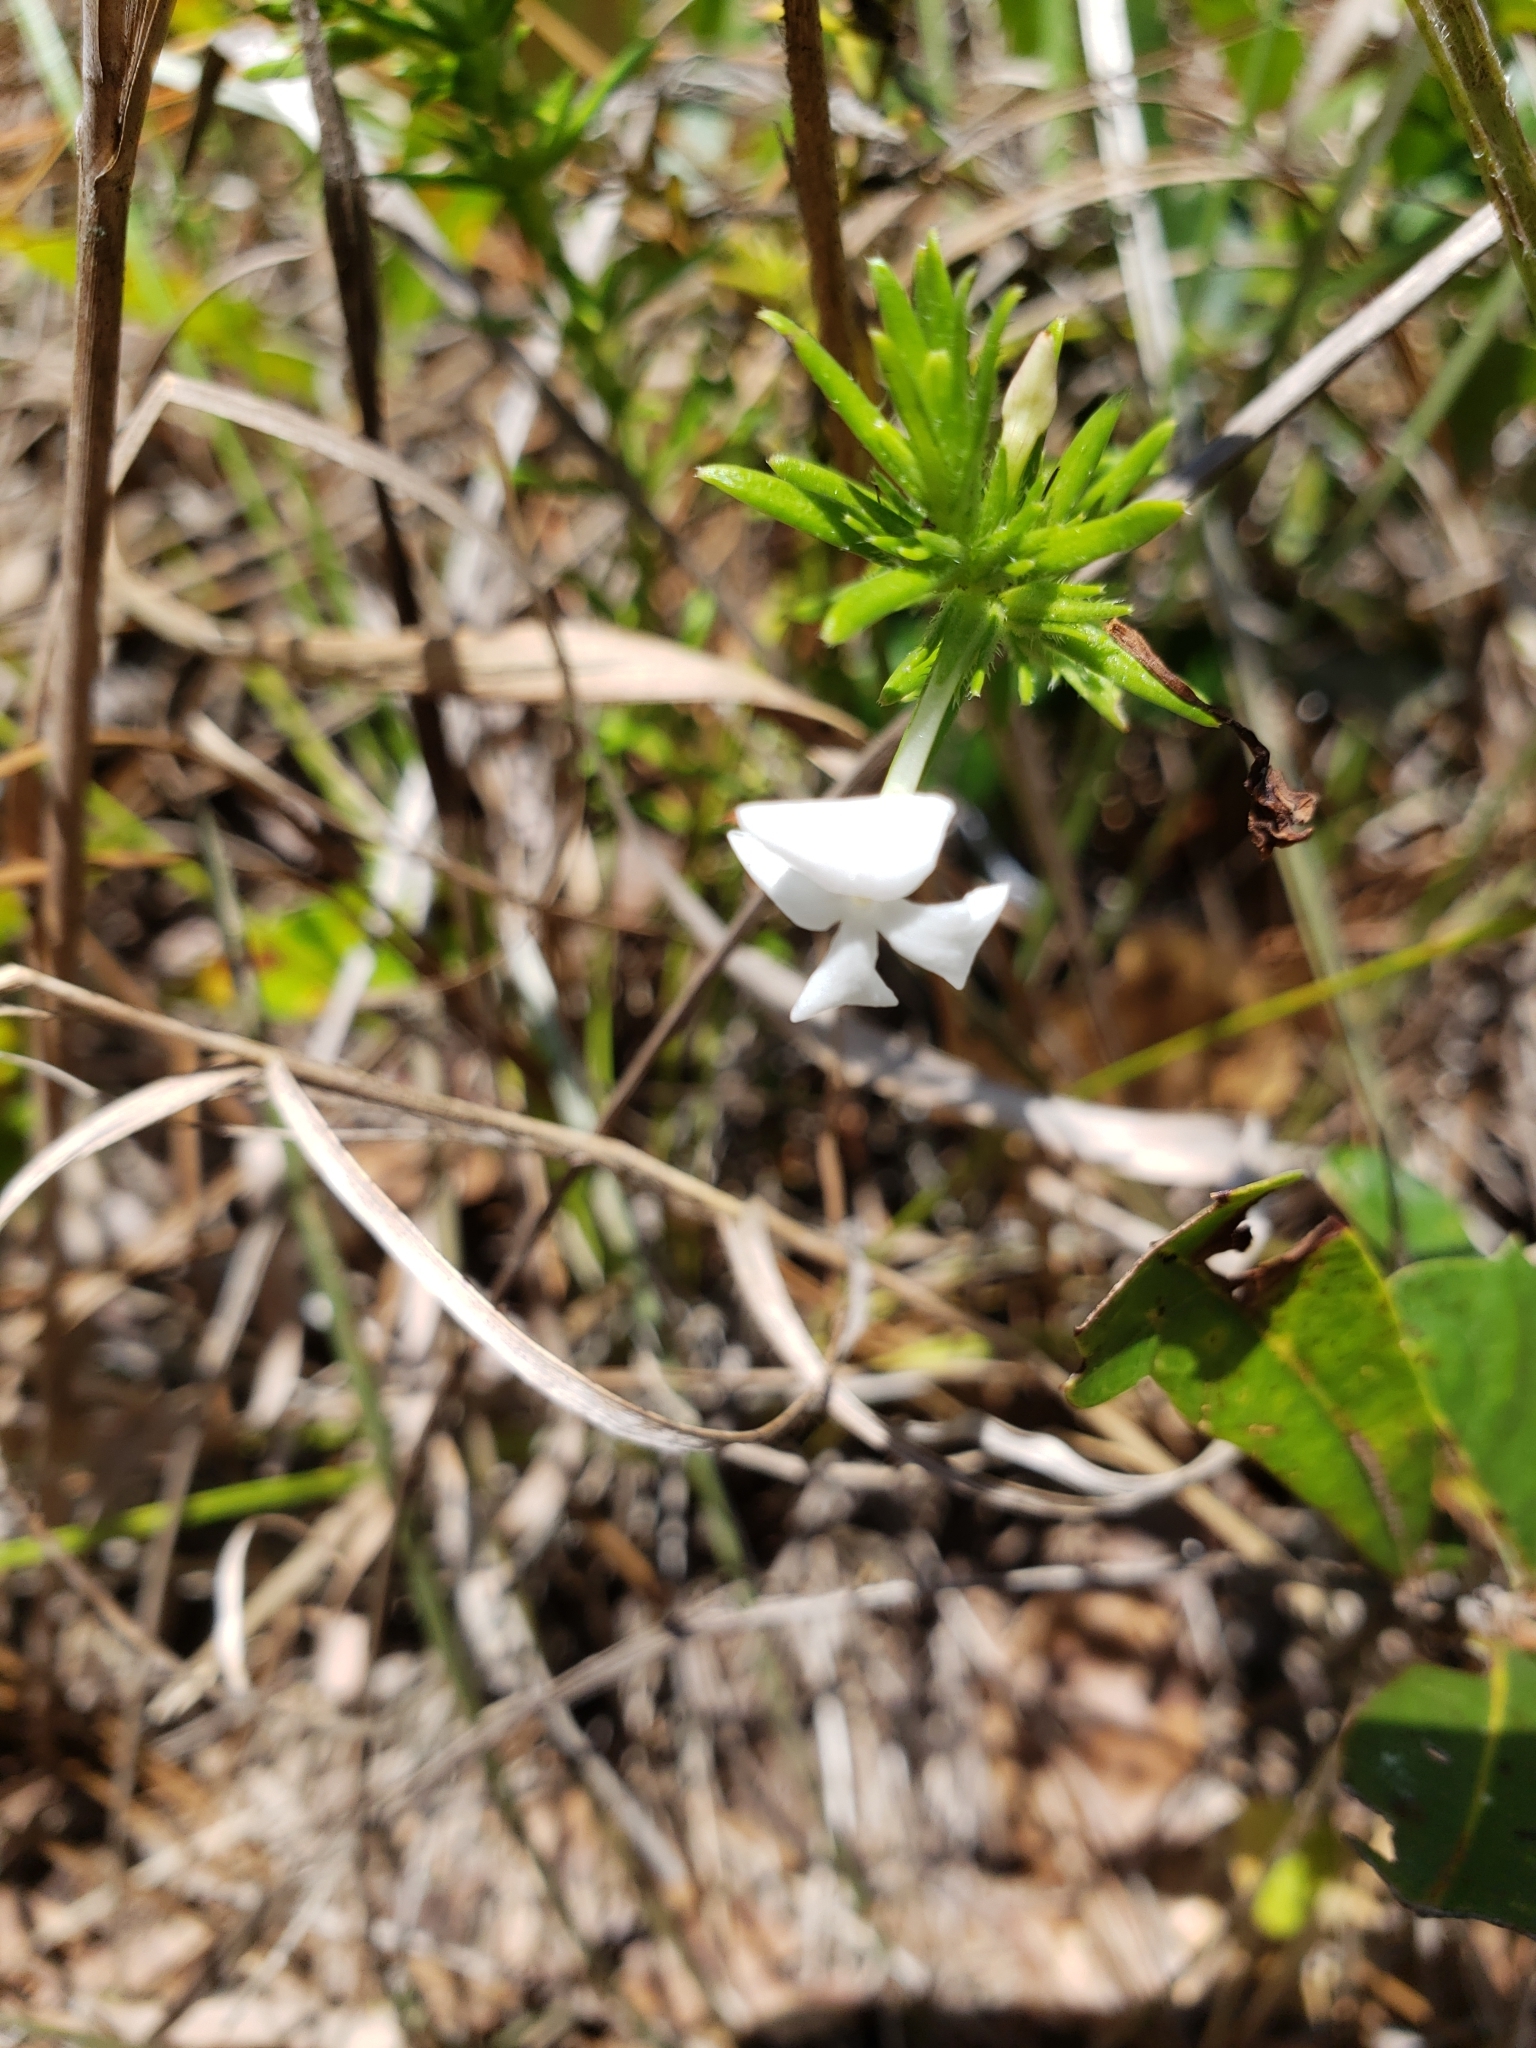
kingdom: Plantae
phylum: Tracheophyta
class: Magnoliopsida
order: Lamiales
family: Plantaginaceae
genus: Gratiola
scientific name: Gratiola hispida
